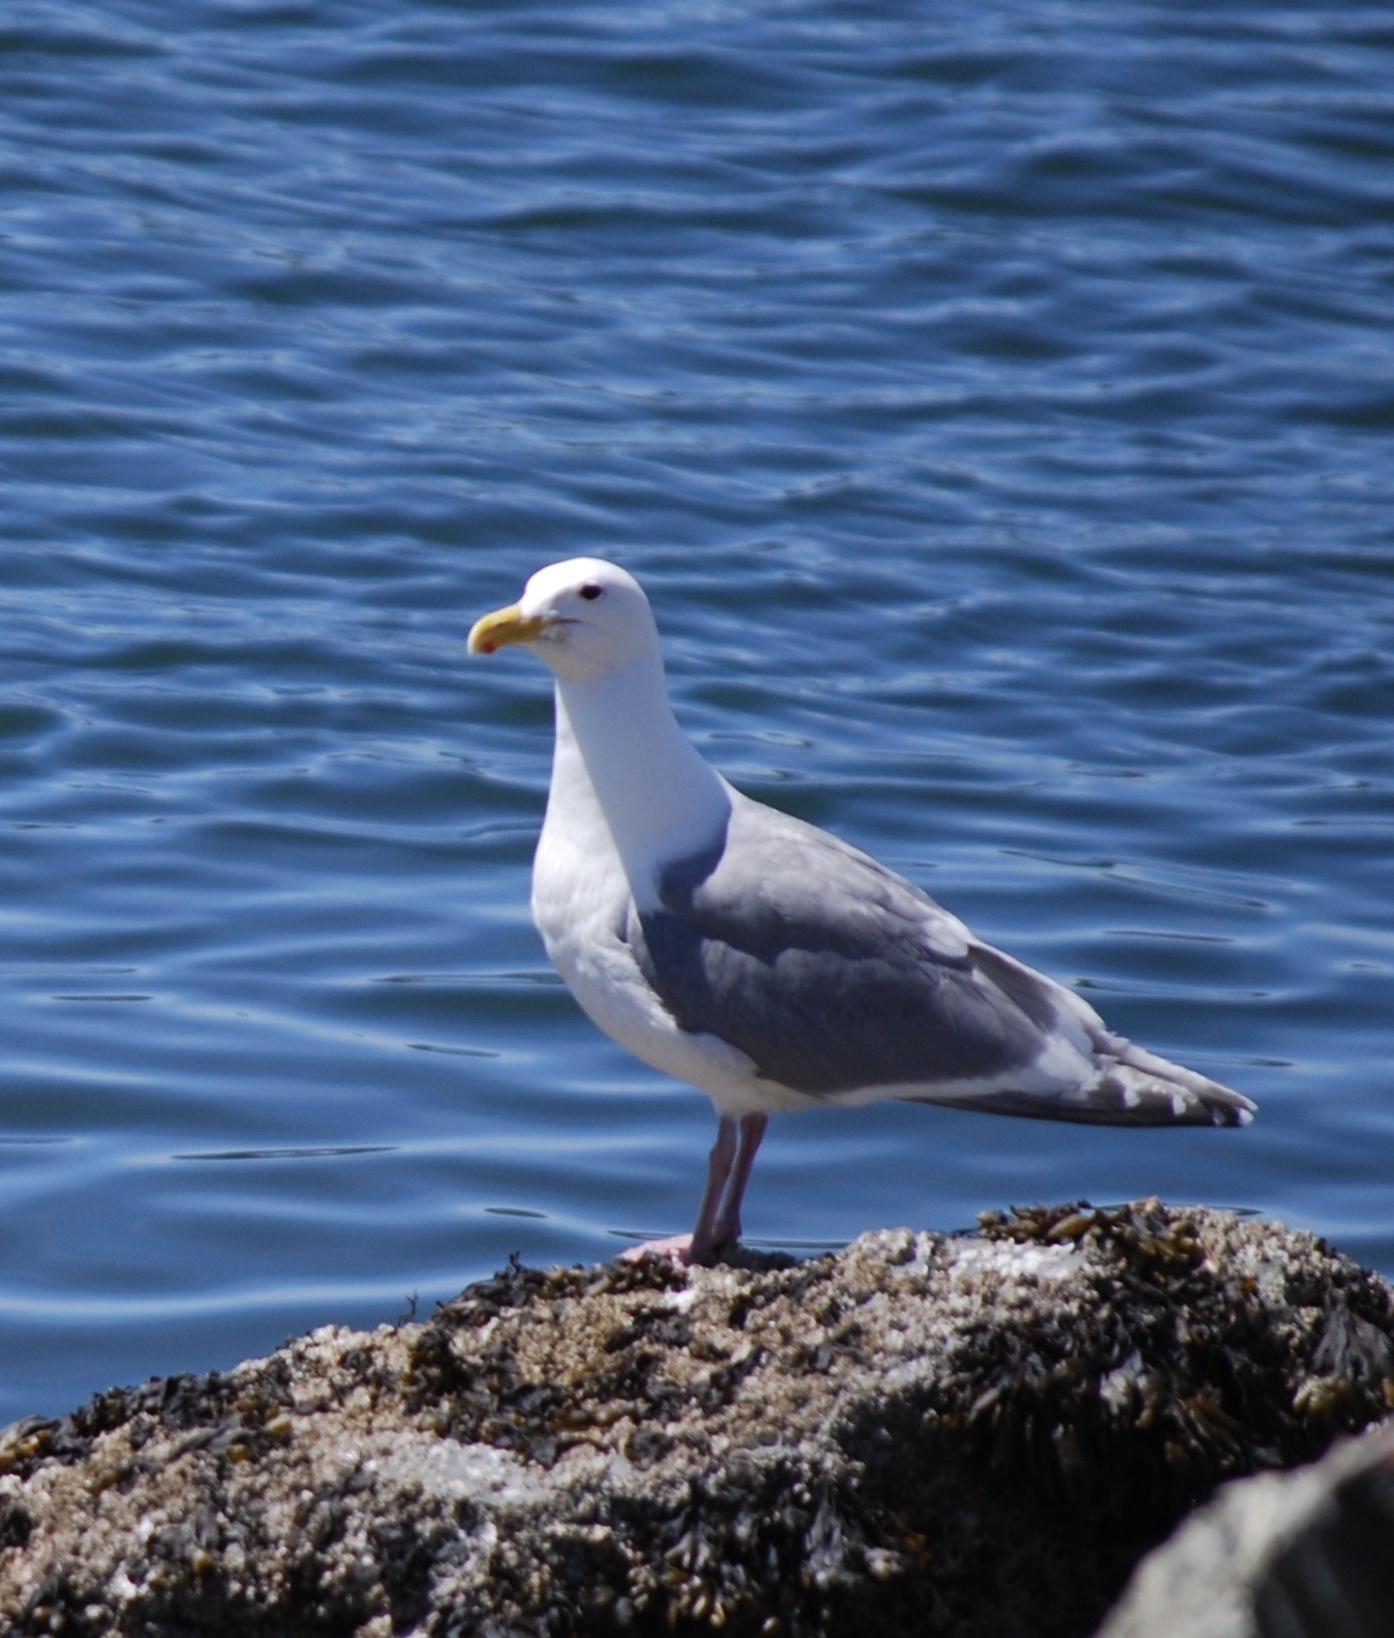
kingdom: Animalia
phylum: Chordata
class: Aves
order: Charadriiformes
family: Laridae
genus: Larus
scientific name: Larus
